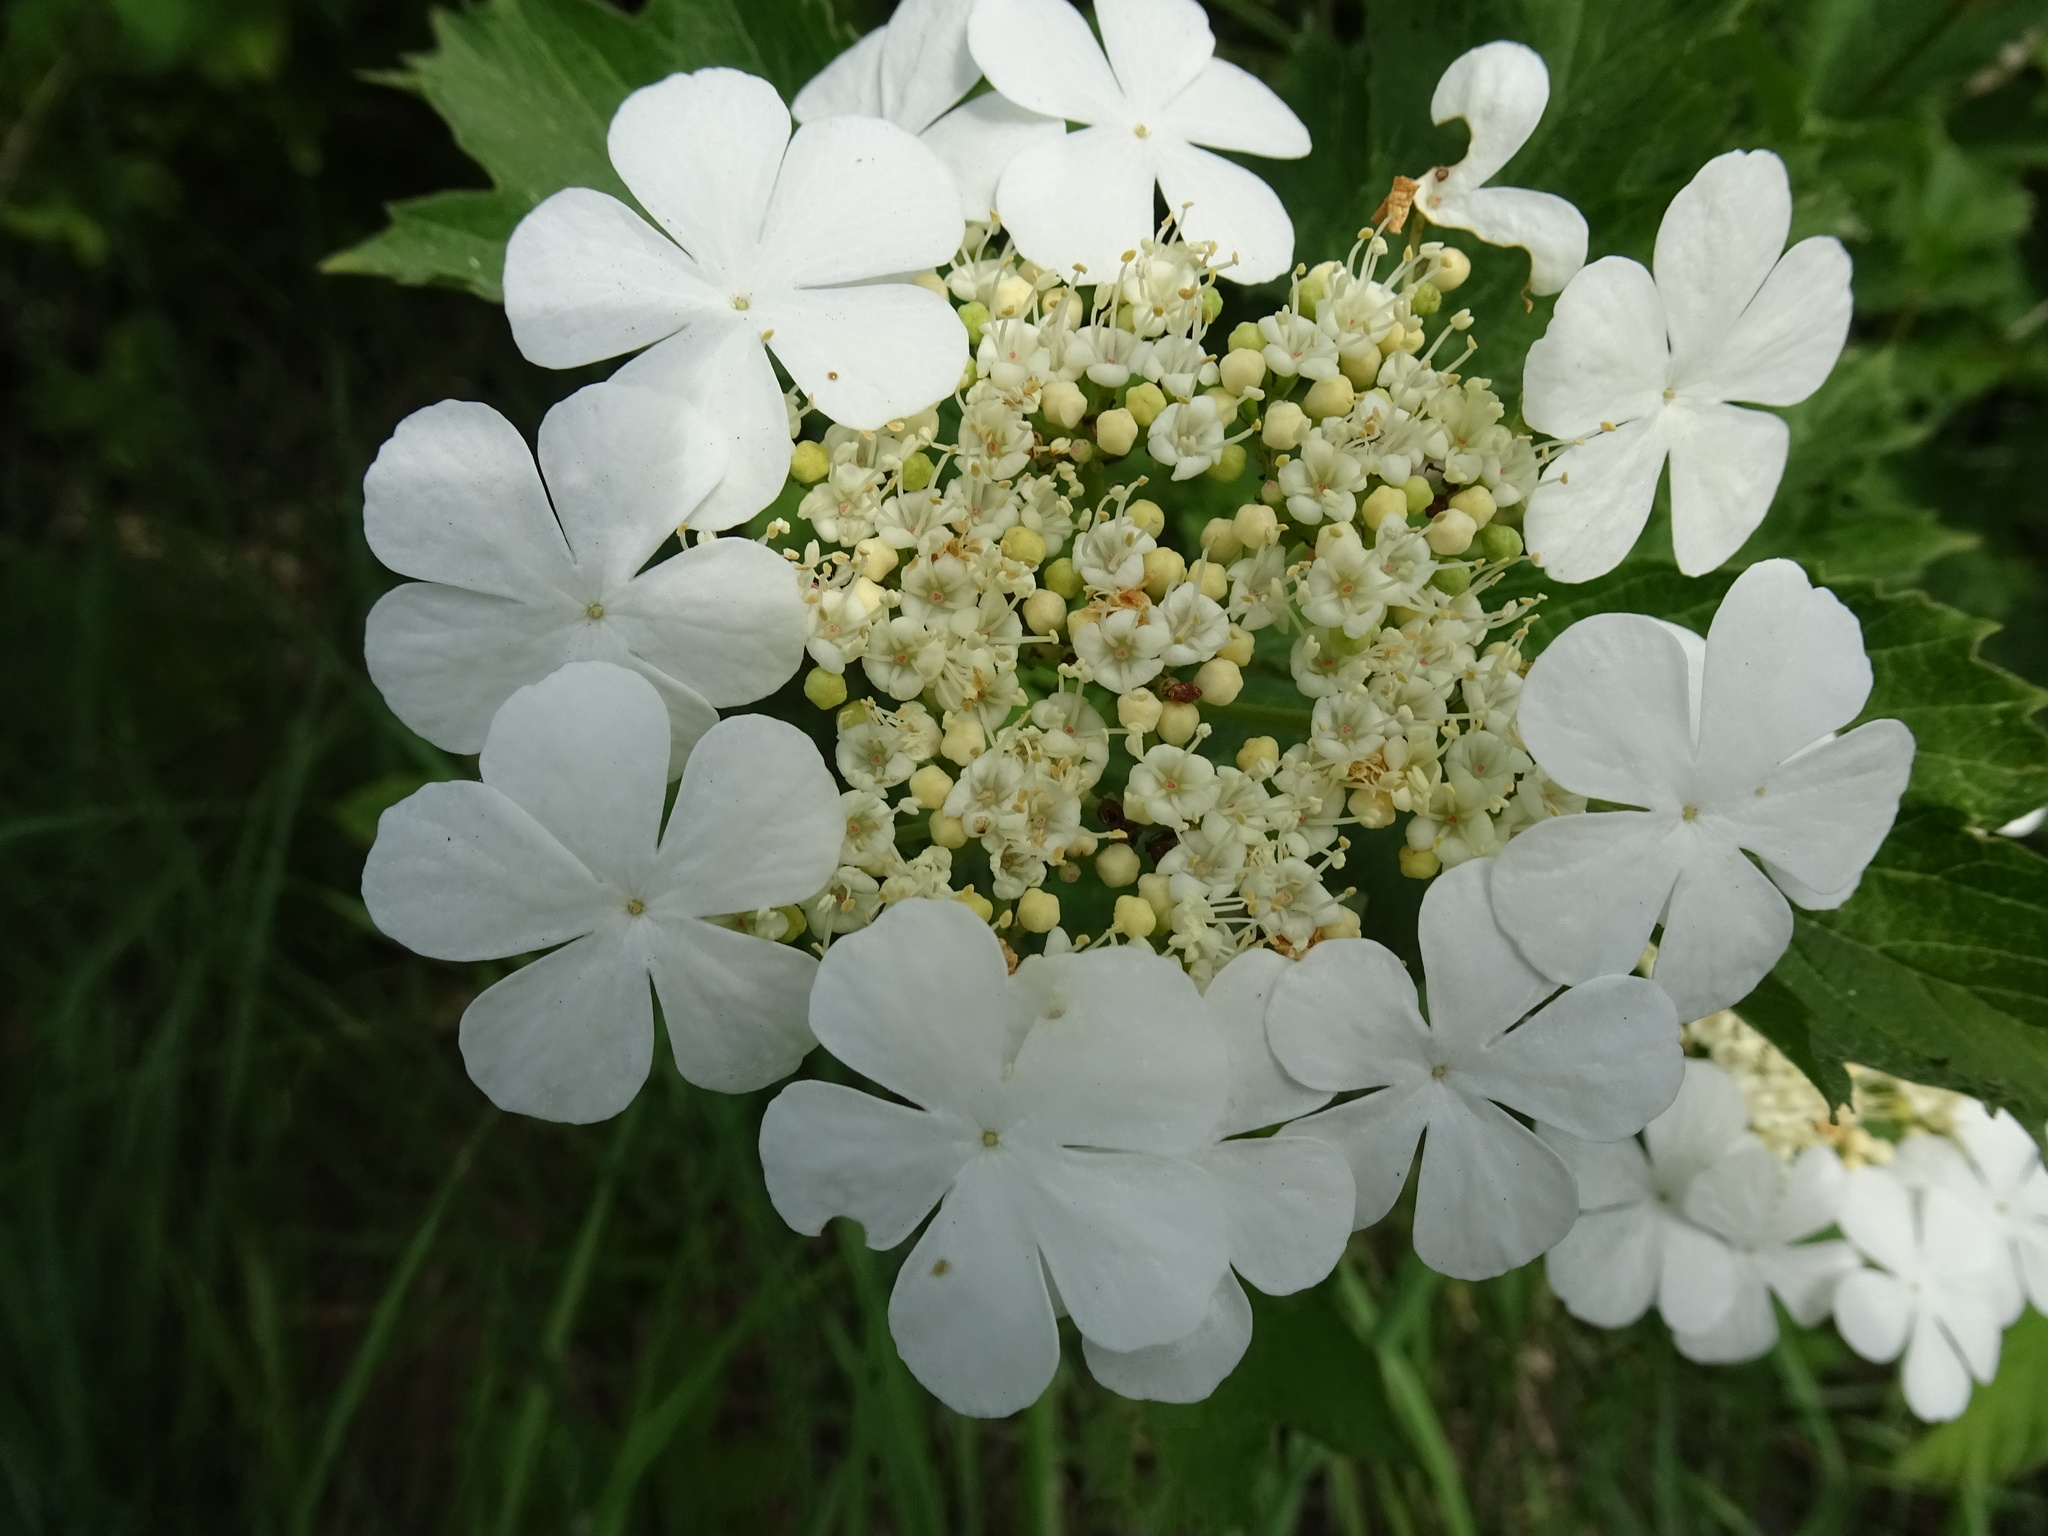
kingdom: Plantae
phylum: Tracheophyta
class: Magnoliopsida
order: Dipsacales
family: Viburnaceae
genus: Viburnum
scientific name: Viburnum opulus
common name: Guelder-rose
